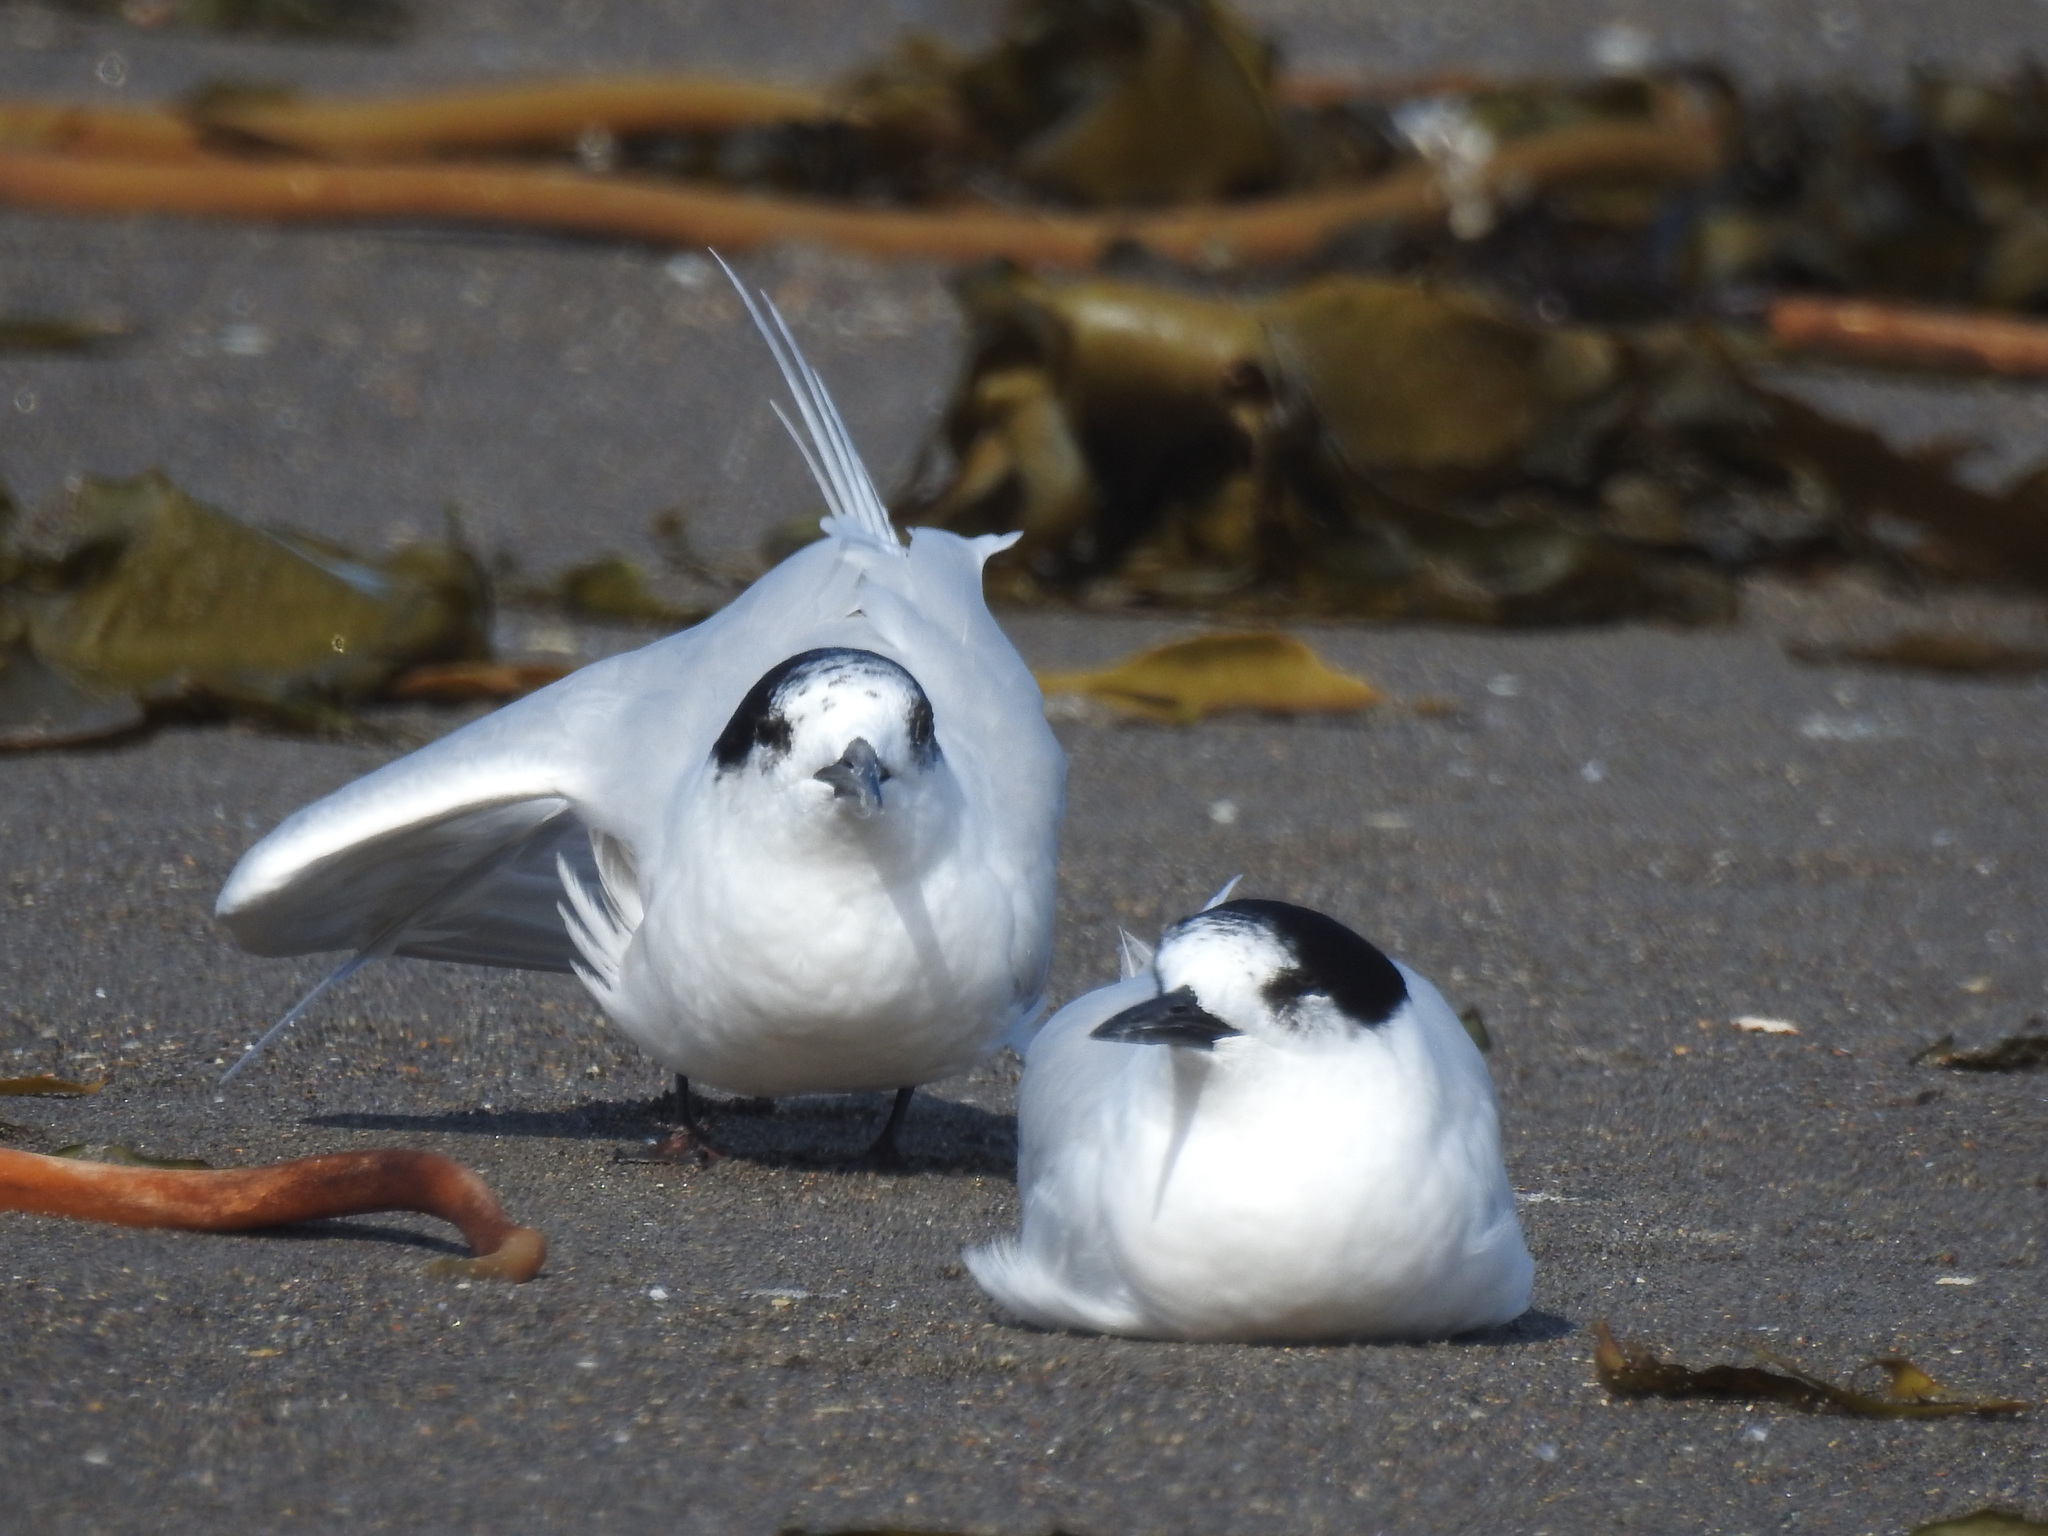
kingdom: Animalia
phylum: Chordata
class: Aves
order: Charadriiformes
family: Laridae
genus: Sterna
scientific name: Sterna striata
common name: White-fronted tern
